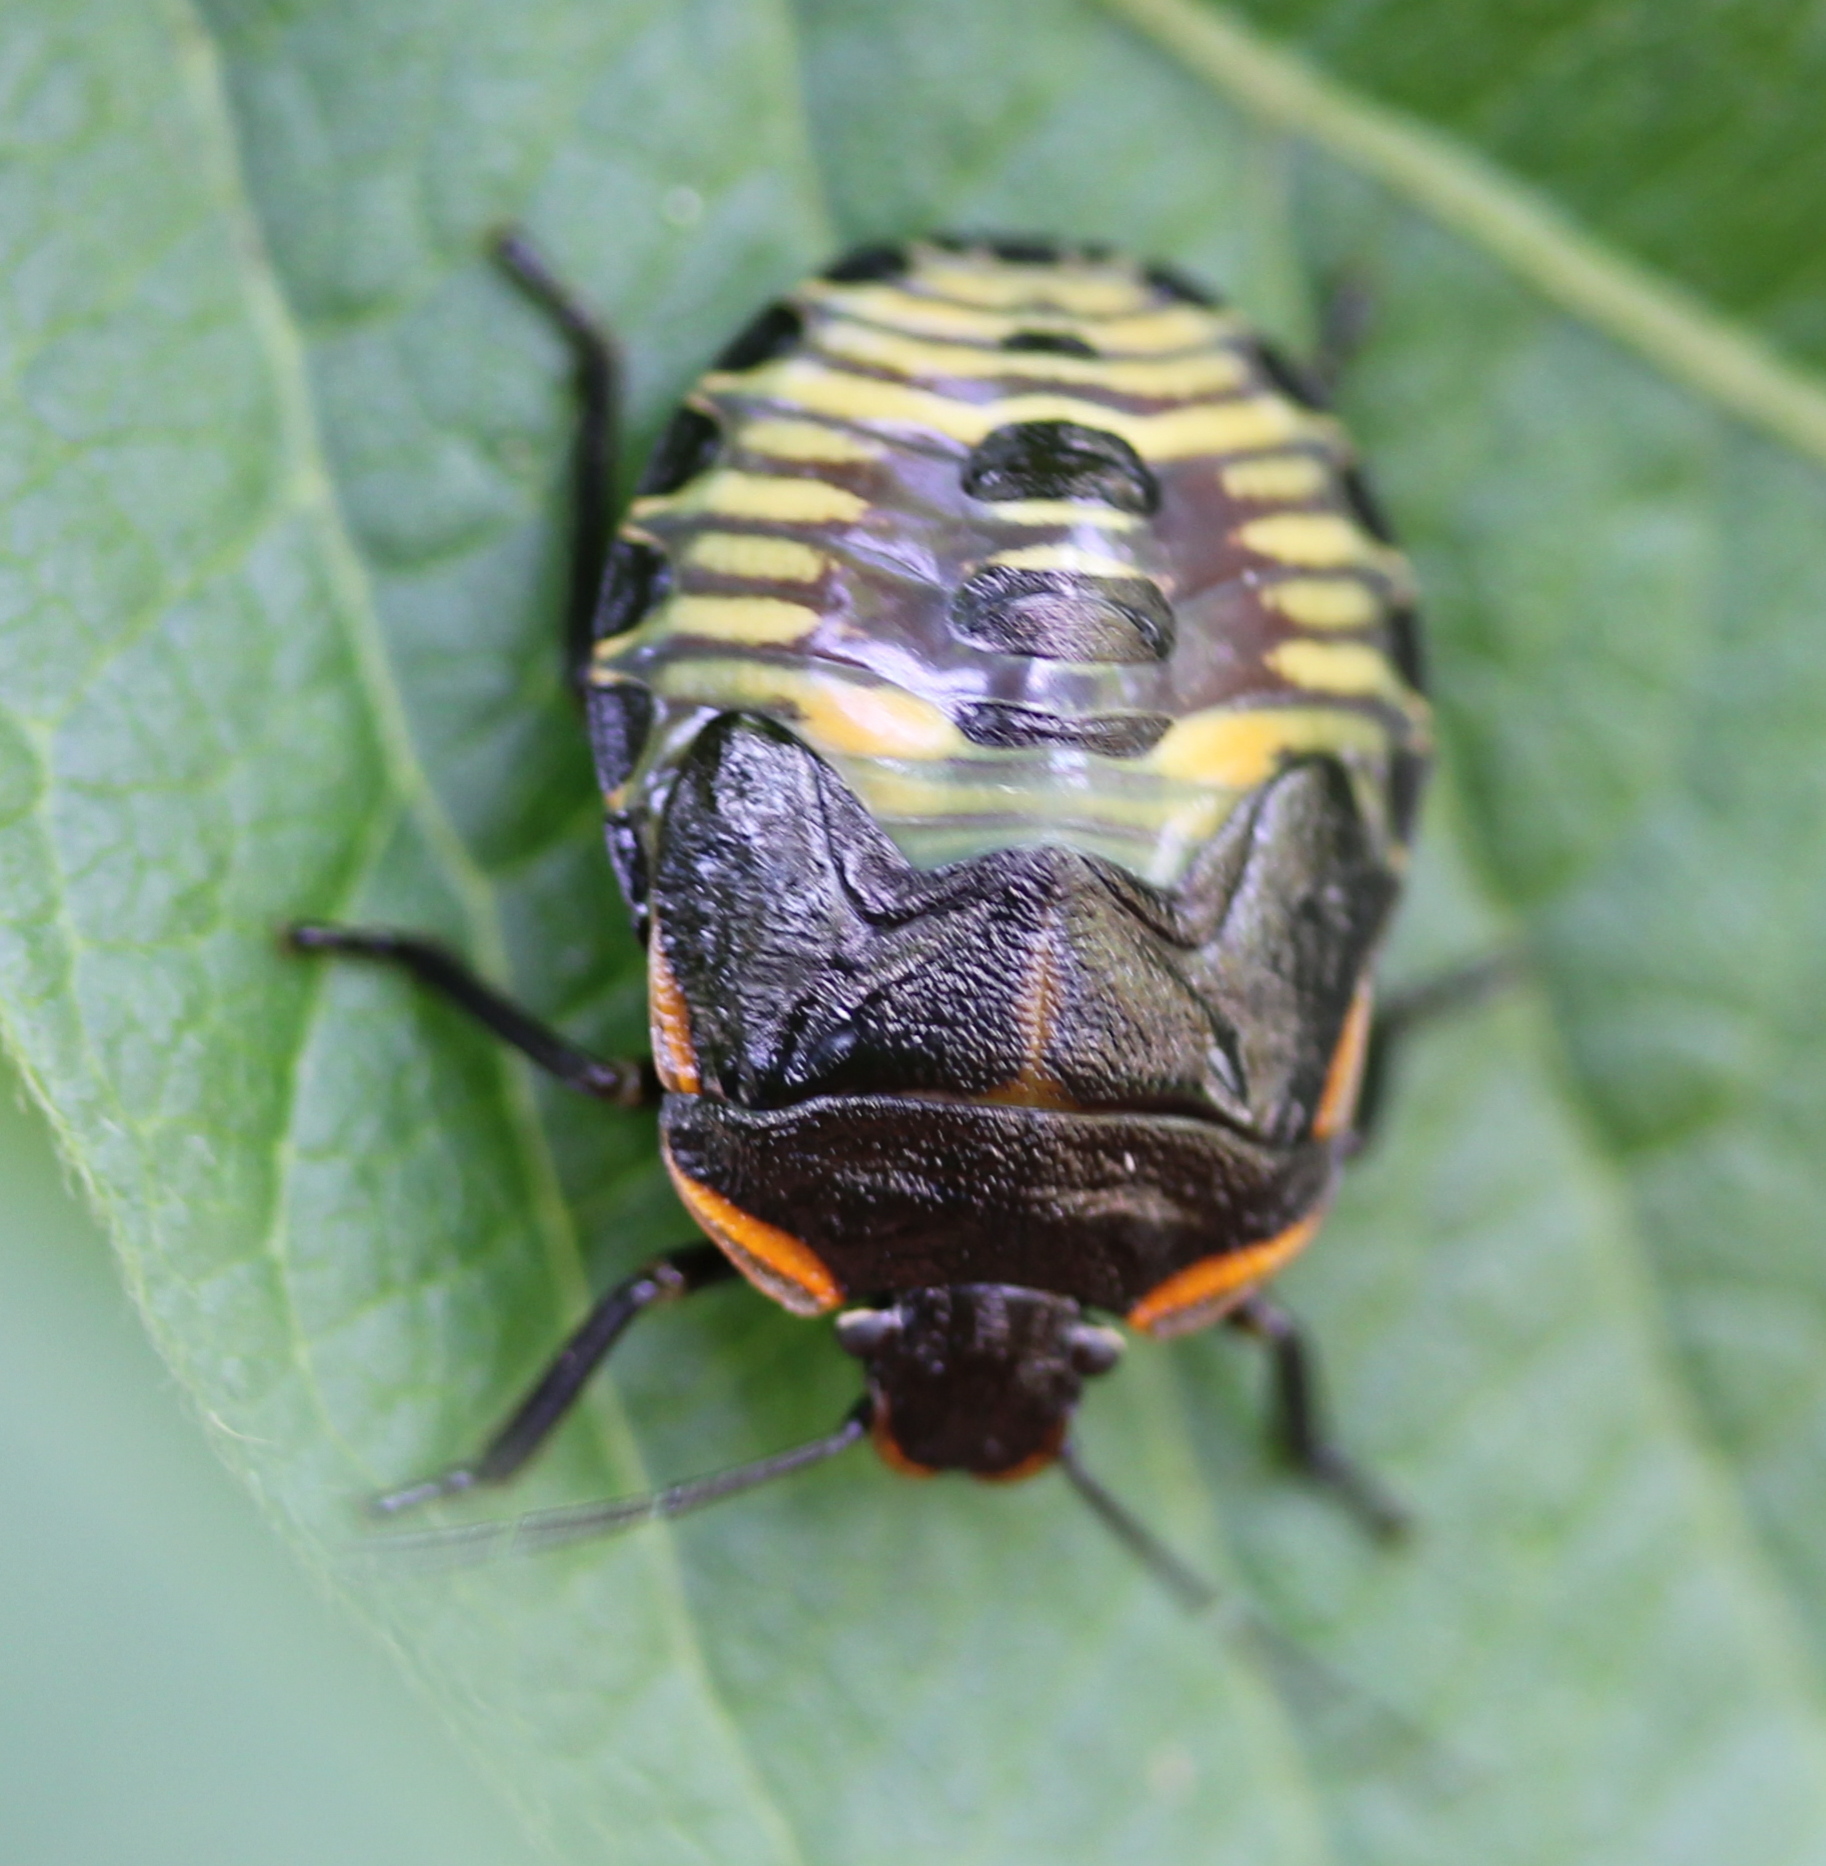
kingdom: Animalia
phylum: Arthropoda
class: Insecta
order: Hemiptera
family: Pentatomidae
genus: Chinavia
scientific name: Chinavia hilaris
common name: Green stink bug
